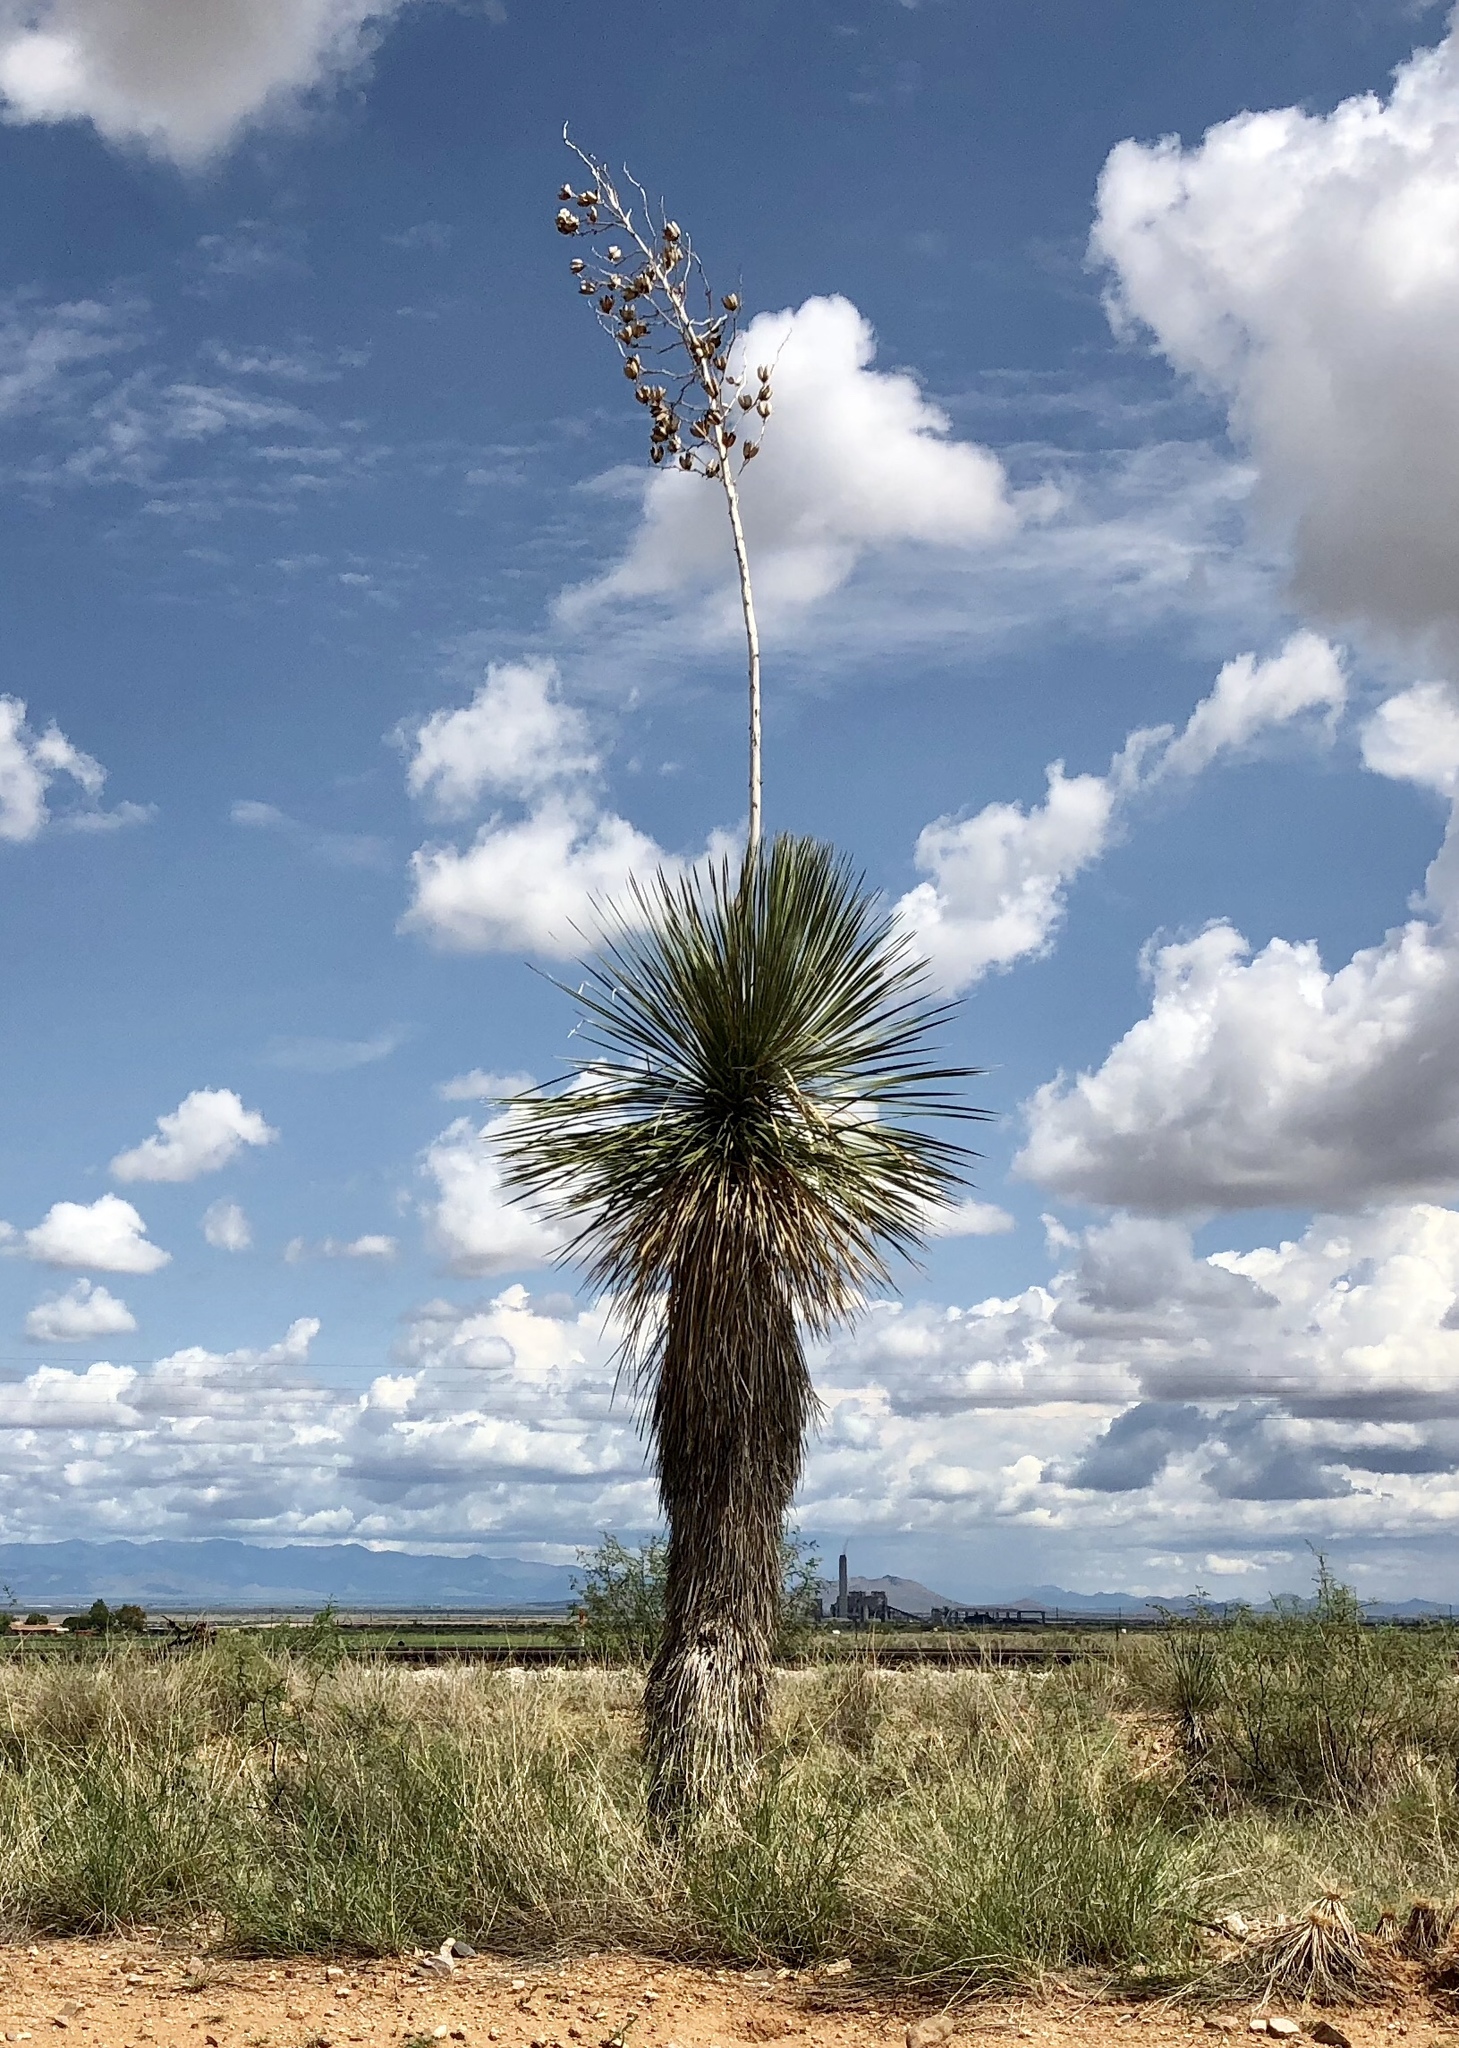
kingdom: Plantae
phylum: Tracheophyta
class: Liliopsida
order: Asparagales
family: Asparagaceae
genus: Yucca
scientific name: Yucca elata
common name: Palmella
